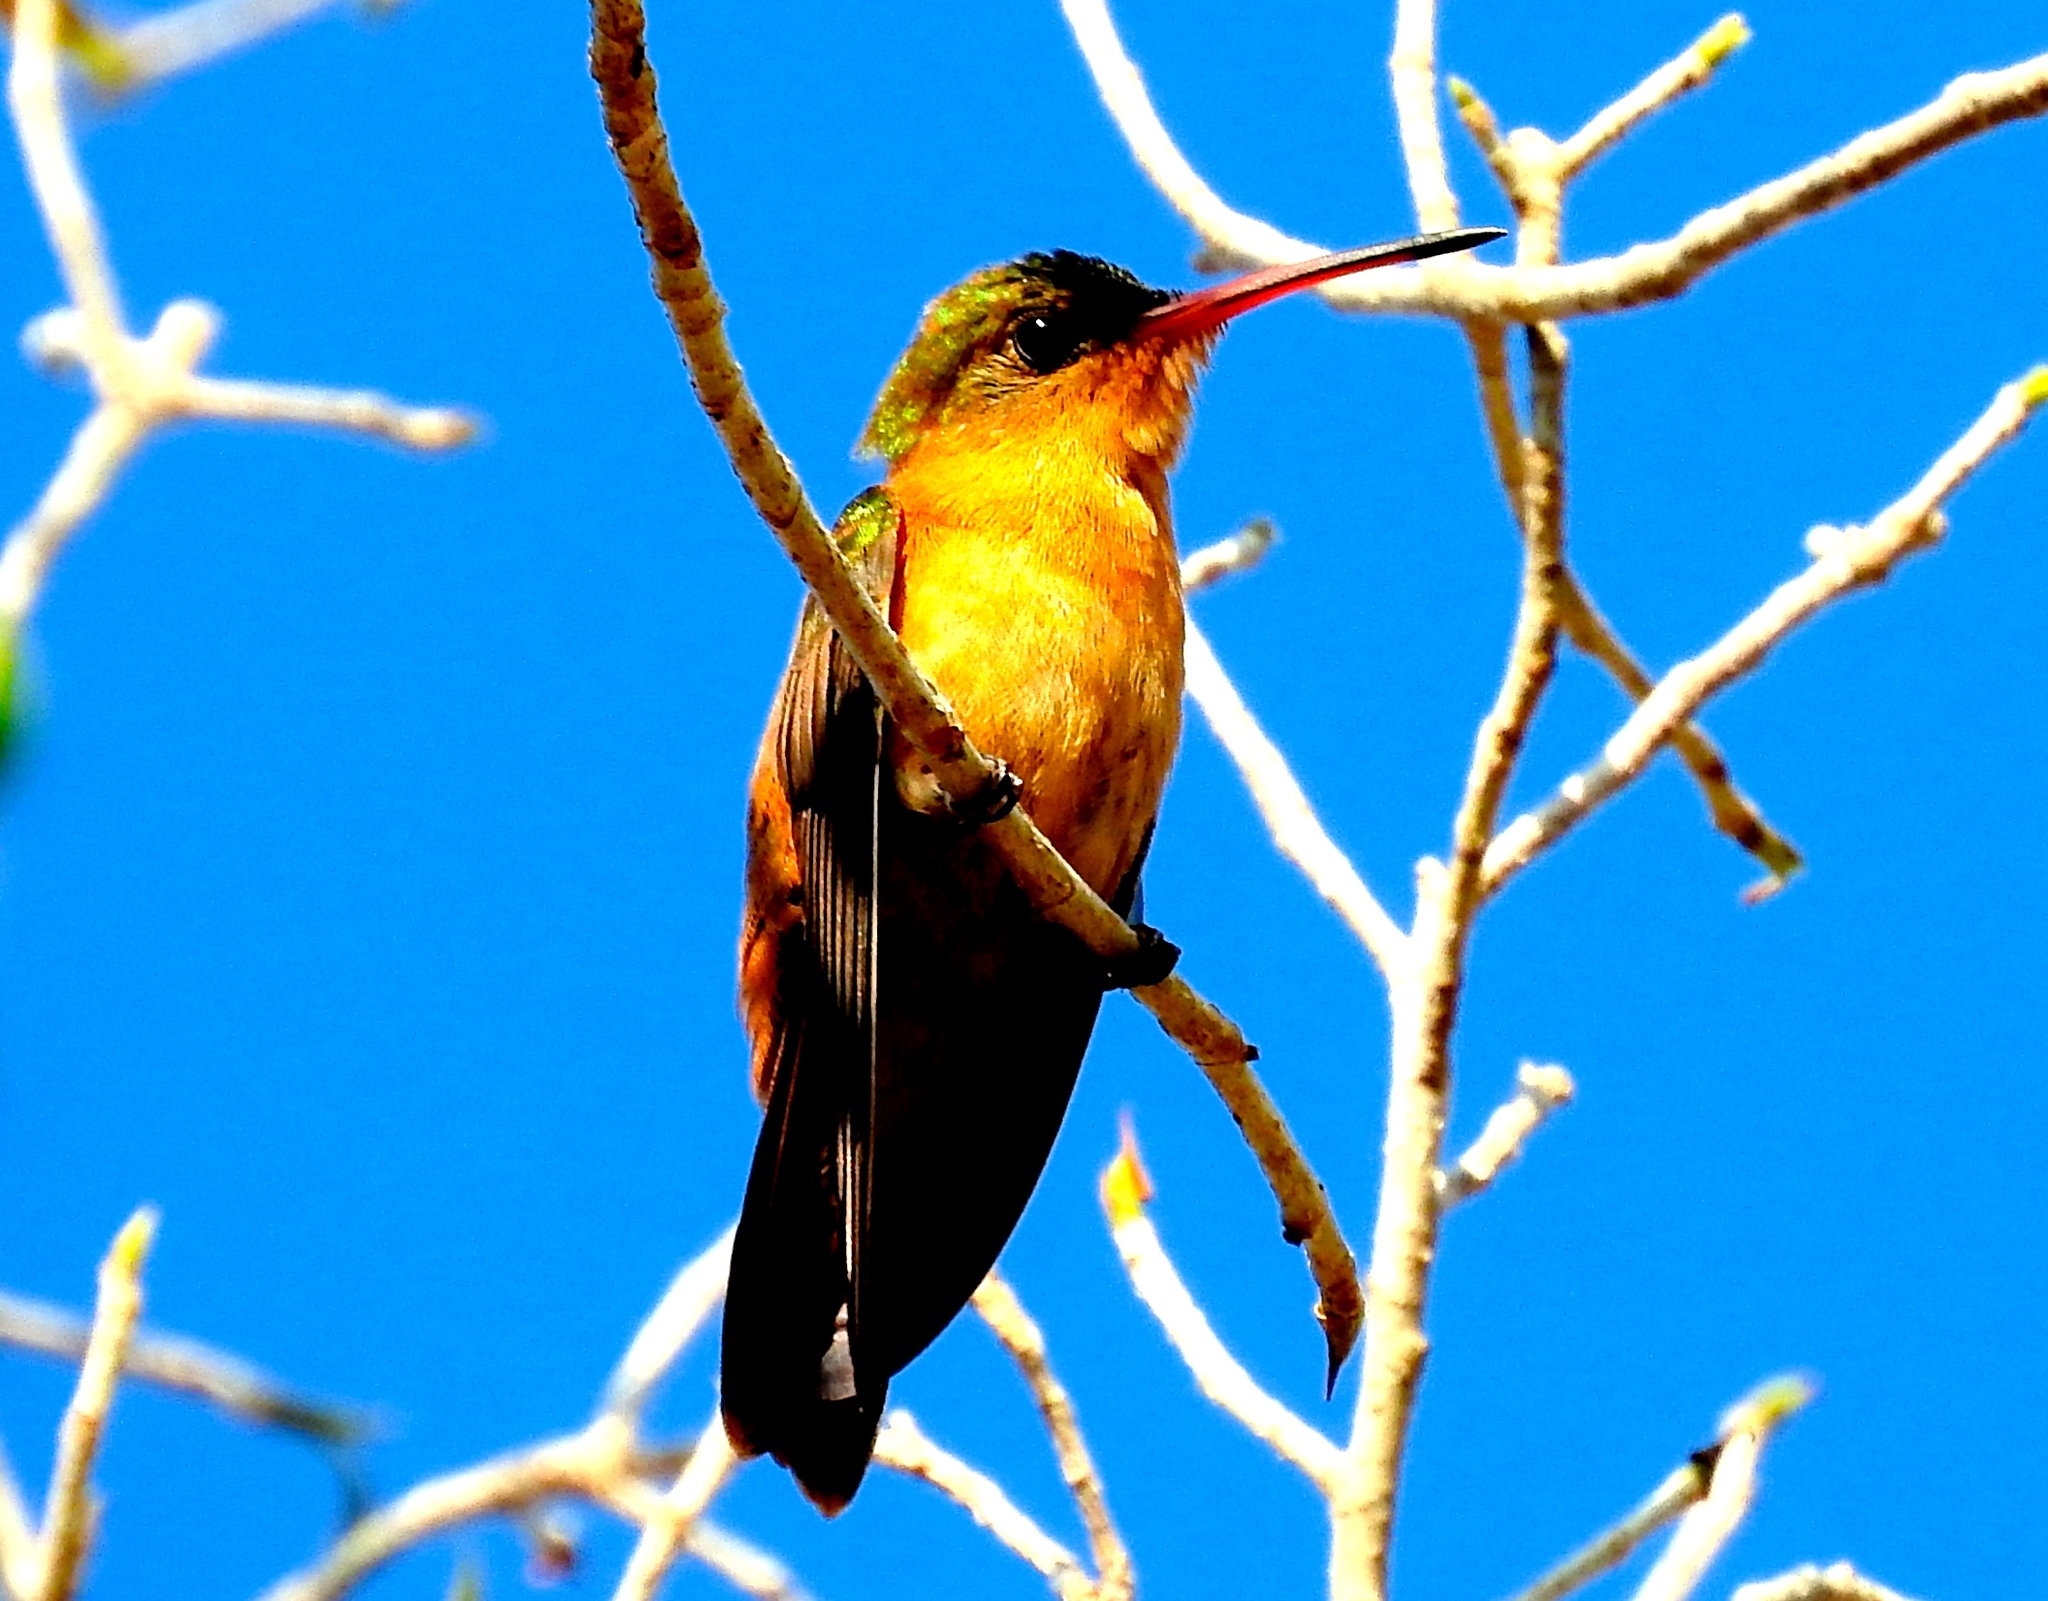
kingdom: Animalia
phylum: Chordata
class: Aves
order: Apodiformes
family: Trochilidae
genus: Amazilia
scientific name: Amazilia rutila
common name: Cinnamon hummingbird
